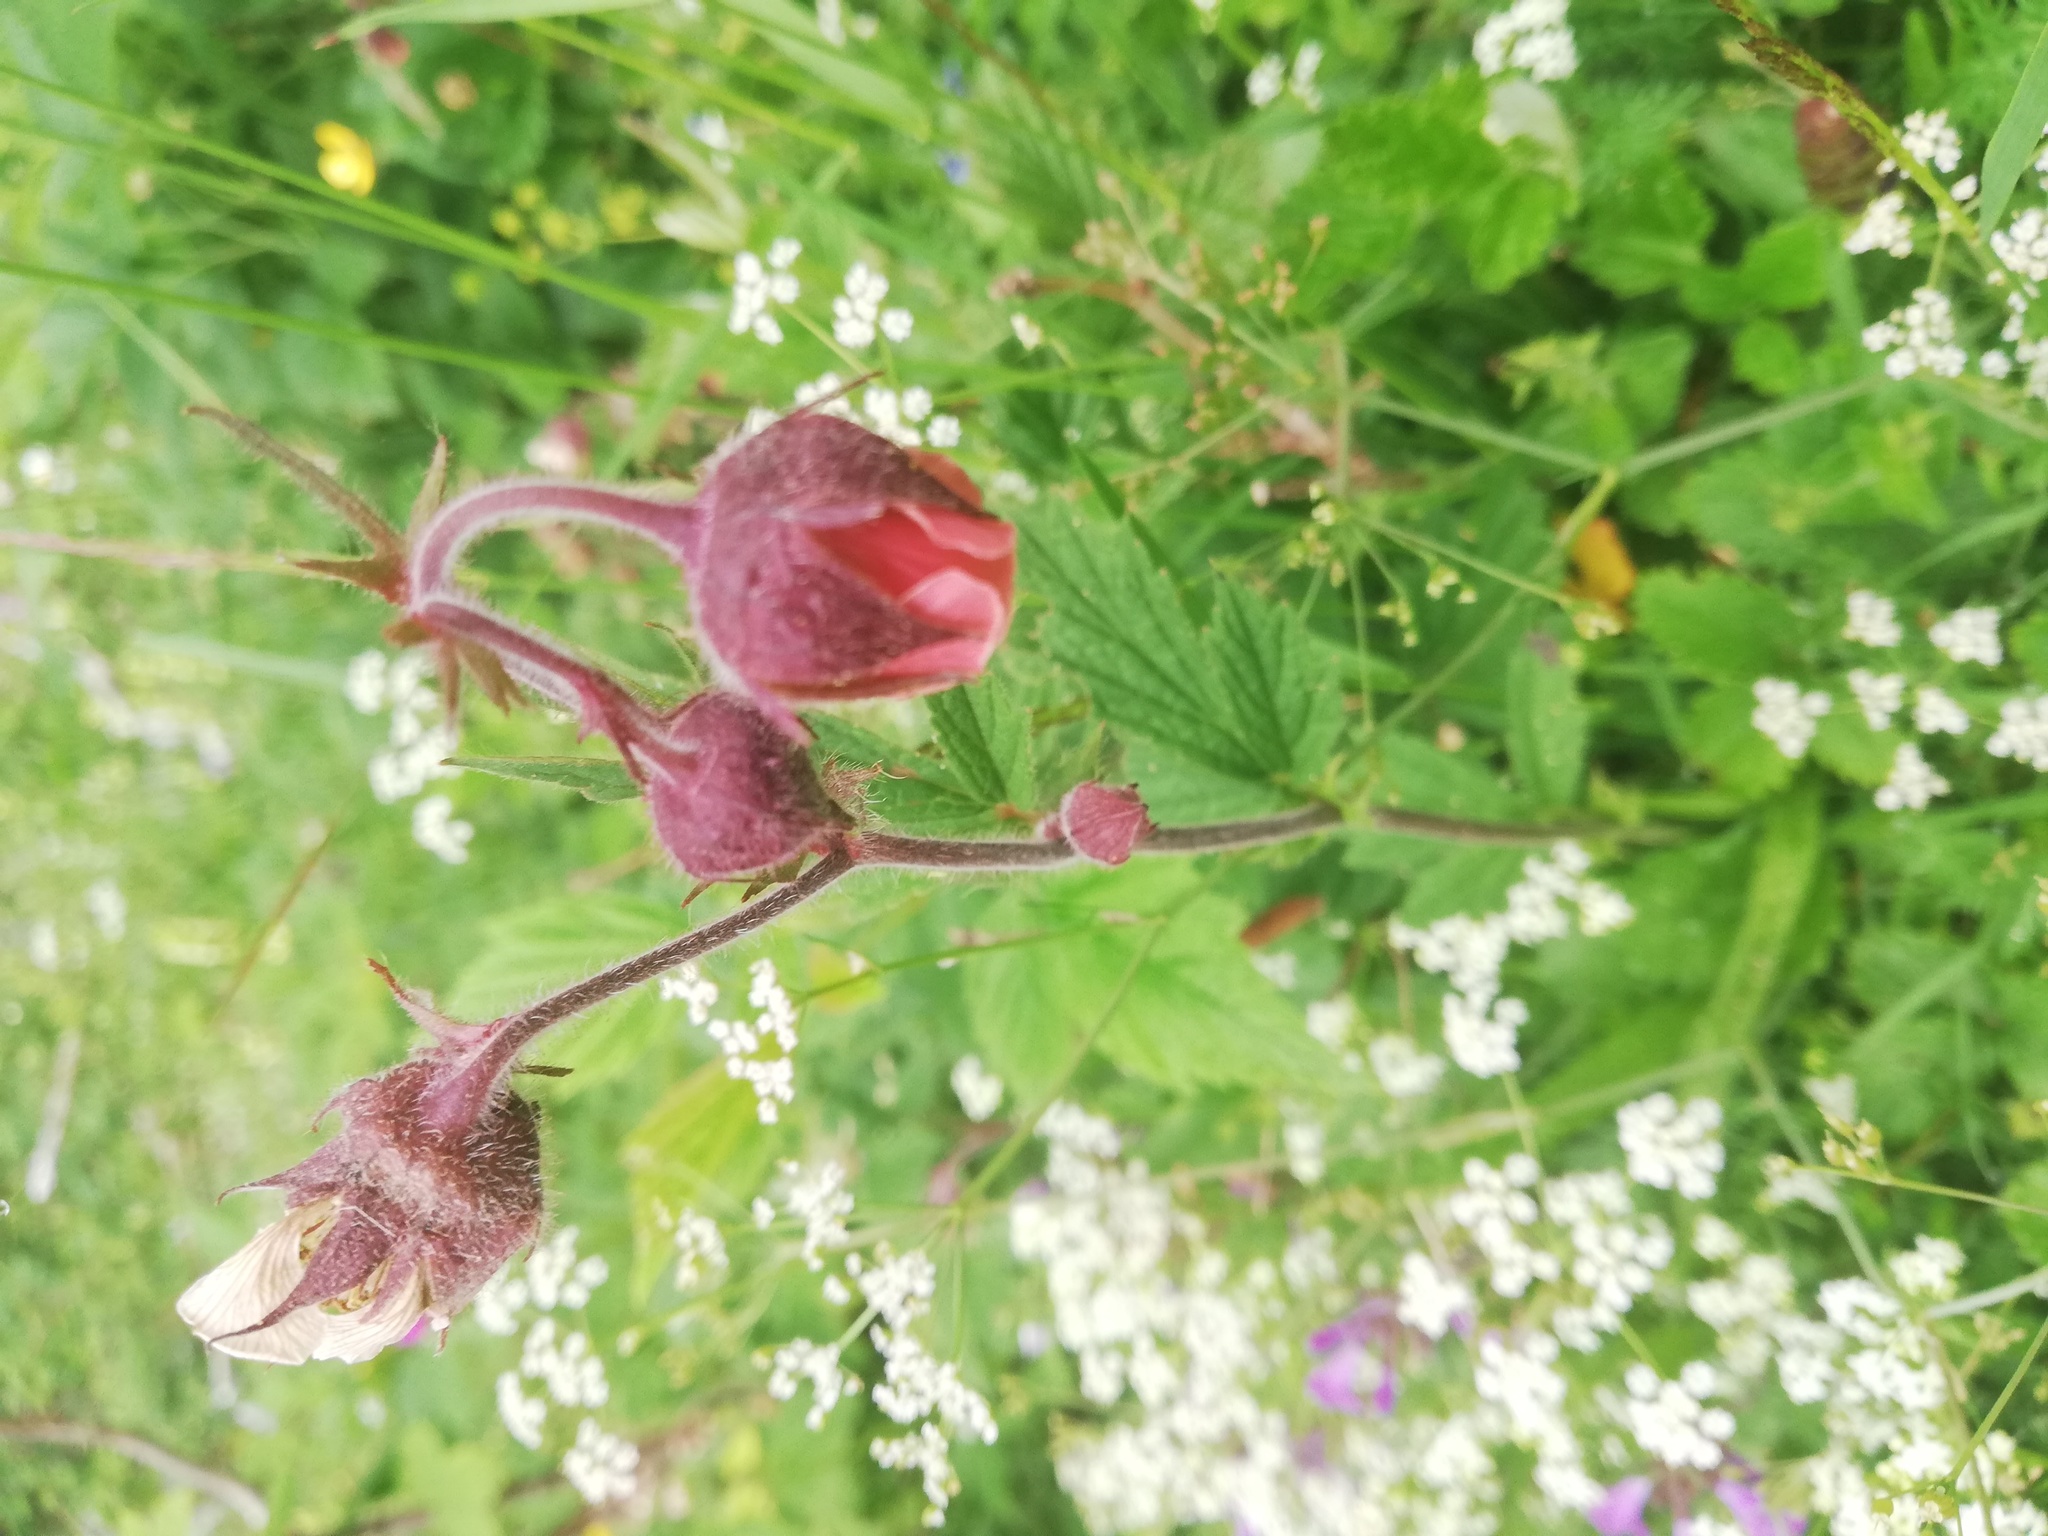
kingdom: Plantae
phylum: Tracheophyta
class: Magnoliopsida
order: Rosales
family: Rosaceae
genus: Geum
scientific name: Geum rivale
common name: Water avens
